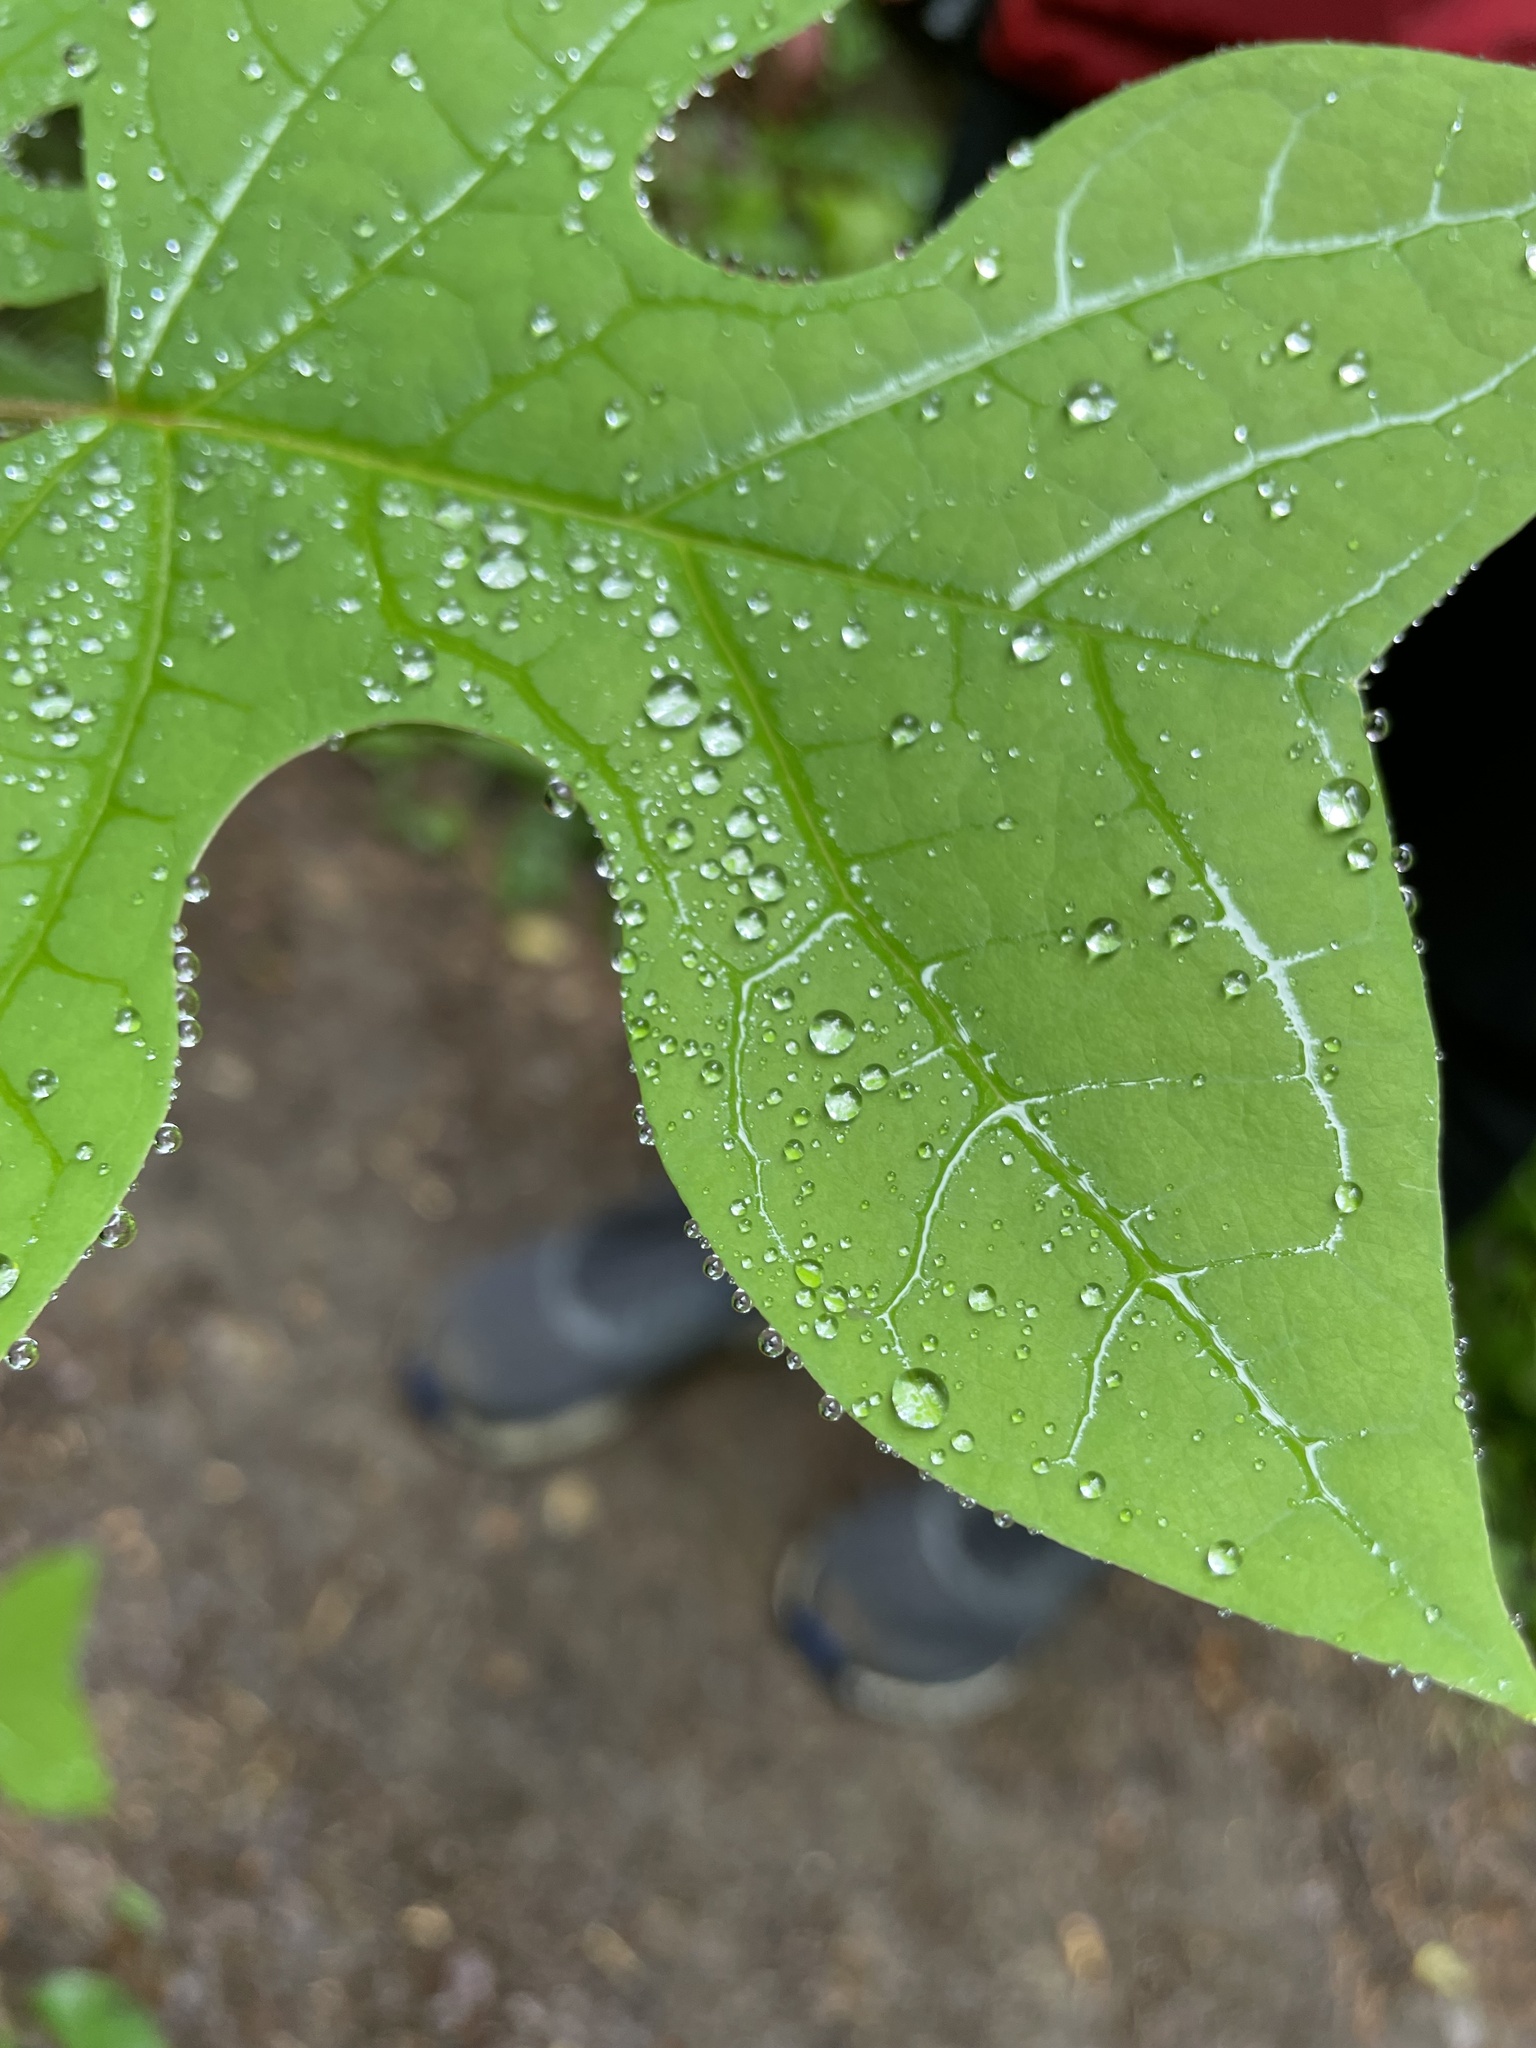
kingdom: Plantae
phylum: Tracheophyta
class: Magnoliopsida
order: Magnoliales
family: Magnoliaceae
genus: Liriodendron
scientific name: Liriodendron tulipifera
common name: Tulip tree
